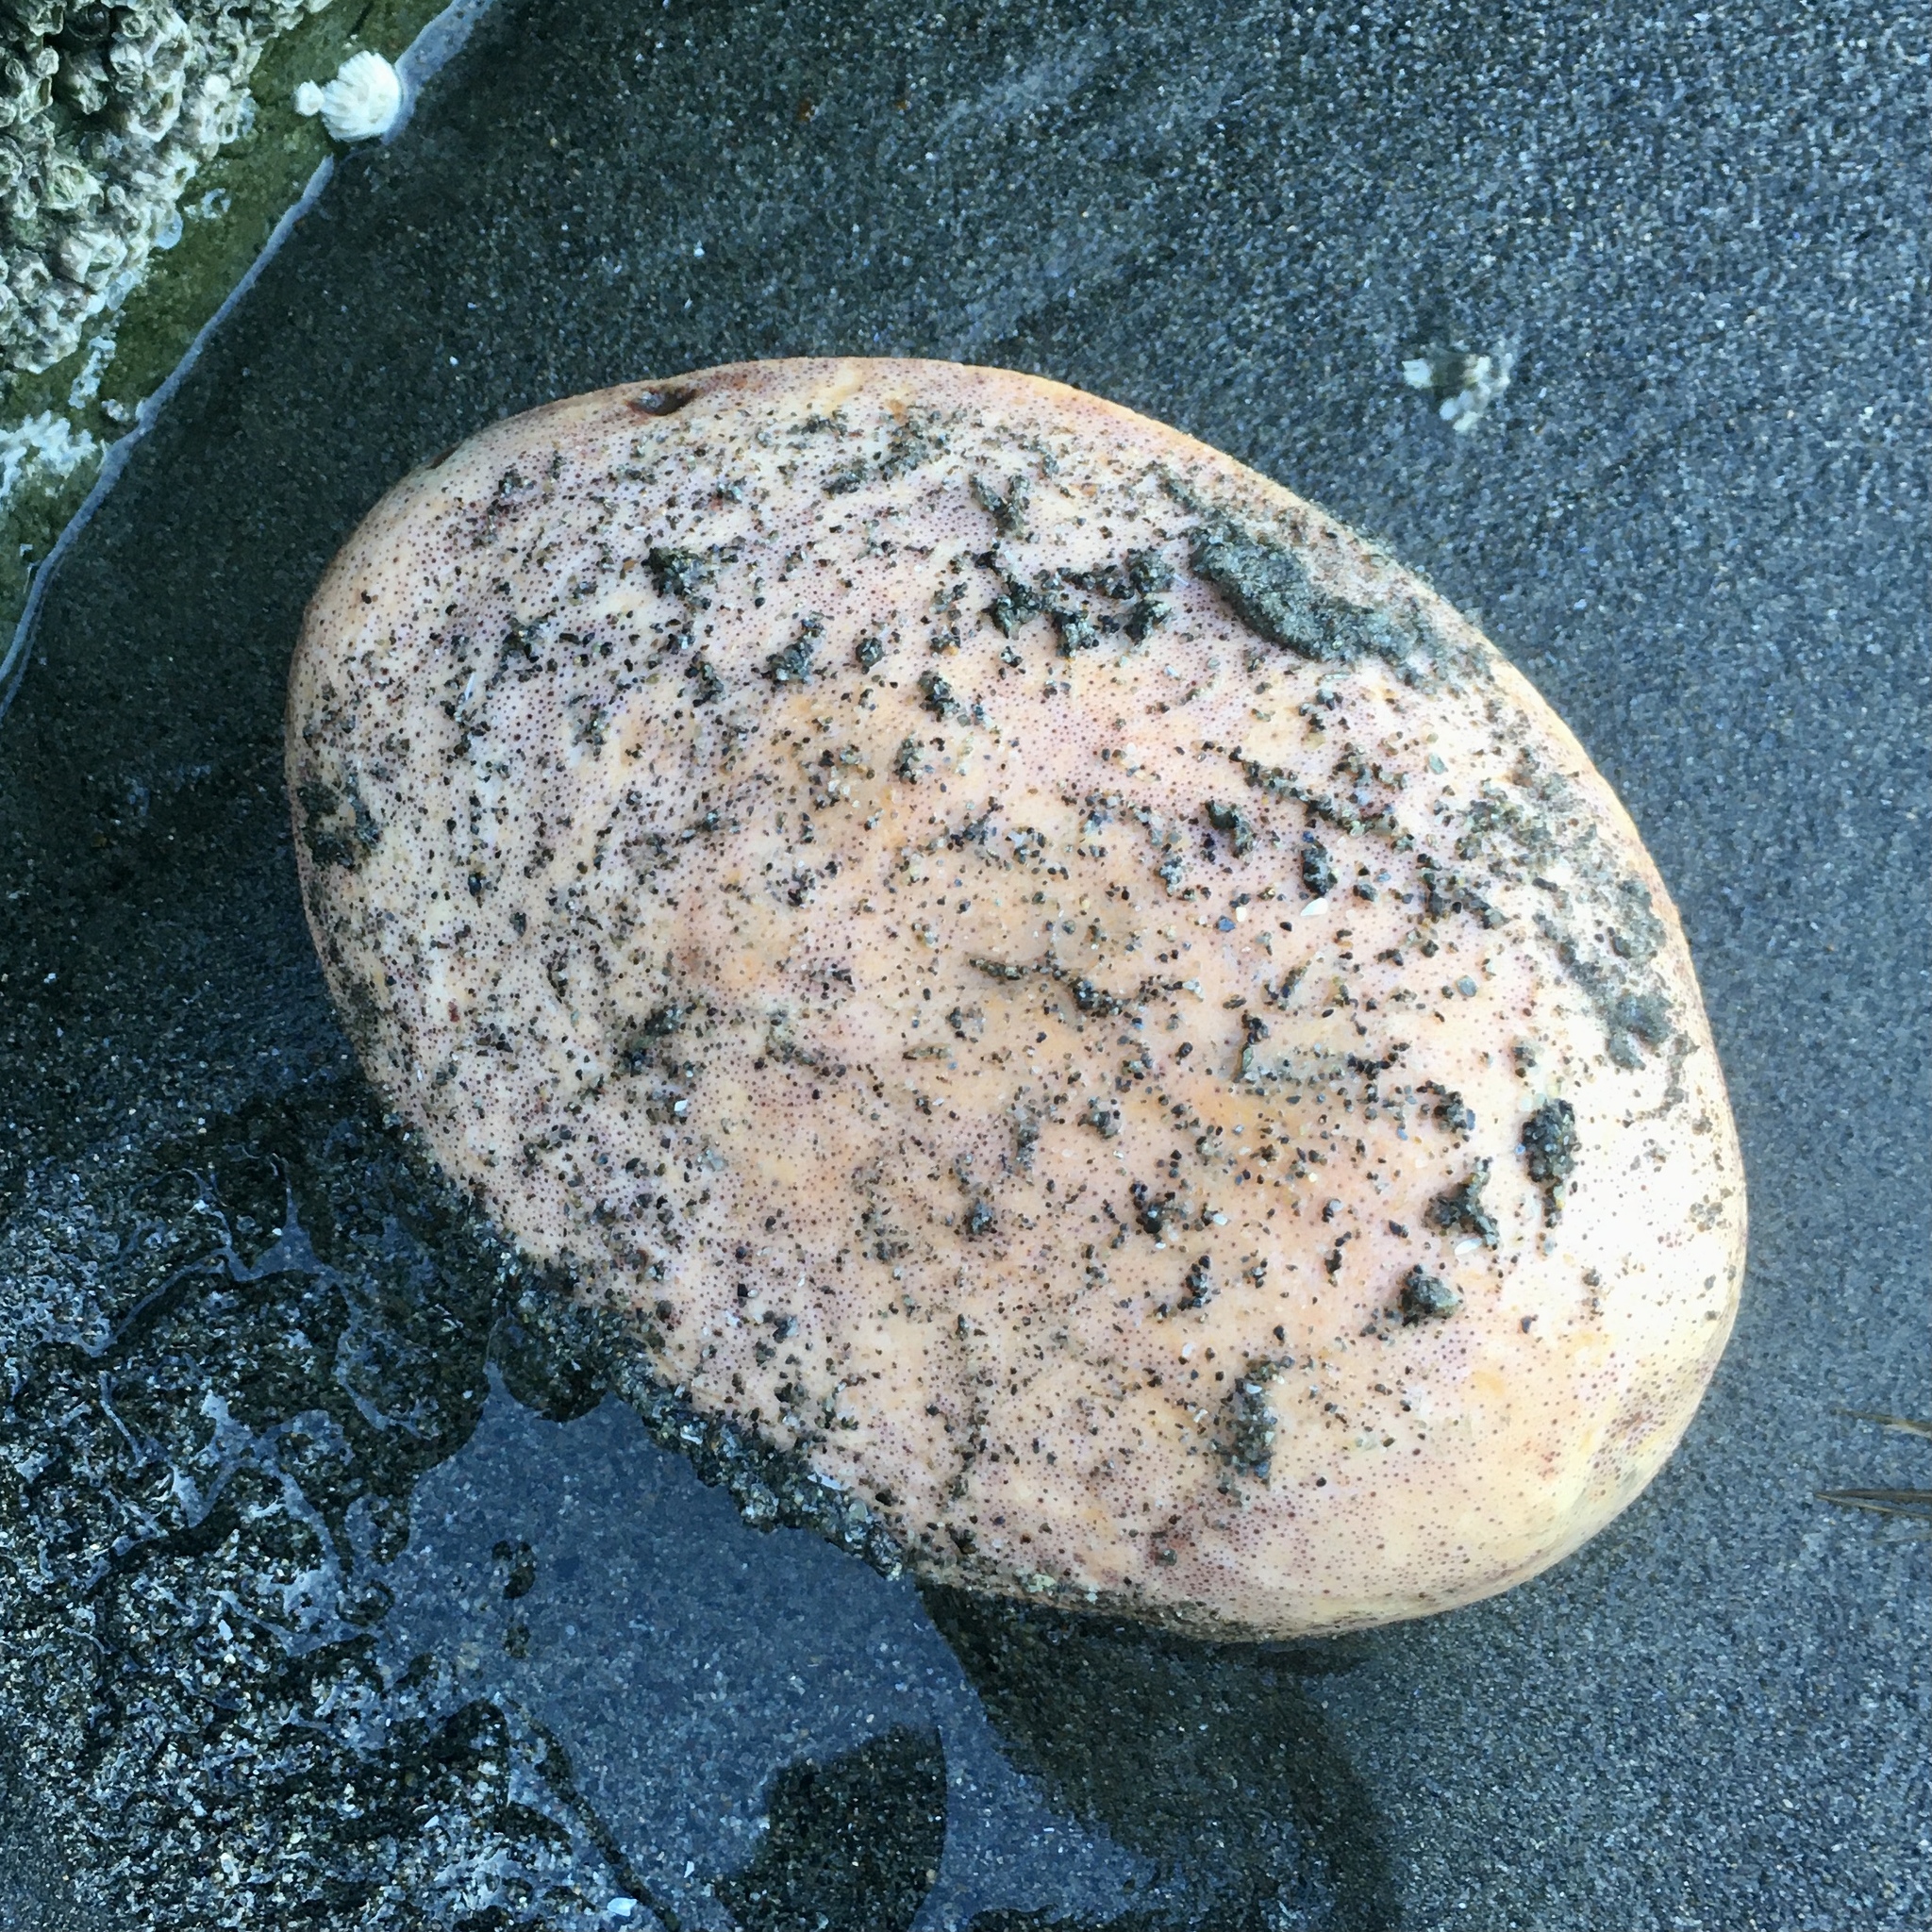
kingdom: Animalia
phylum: Mollusca
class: Polyplacophora
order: Chitonida
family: Acanthochitonidae
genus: Cryptochiton
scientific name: Cryptochiton stelleri
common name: Giant pacific chiton
